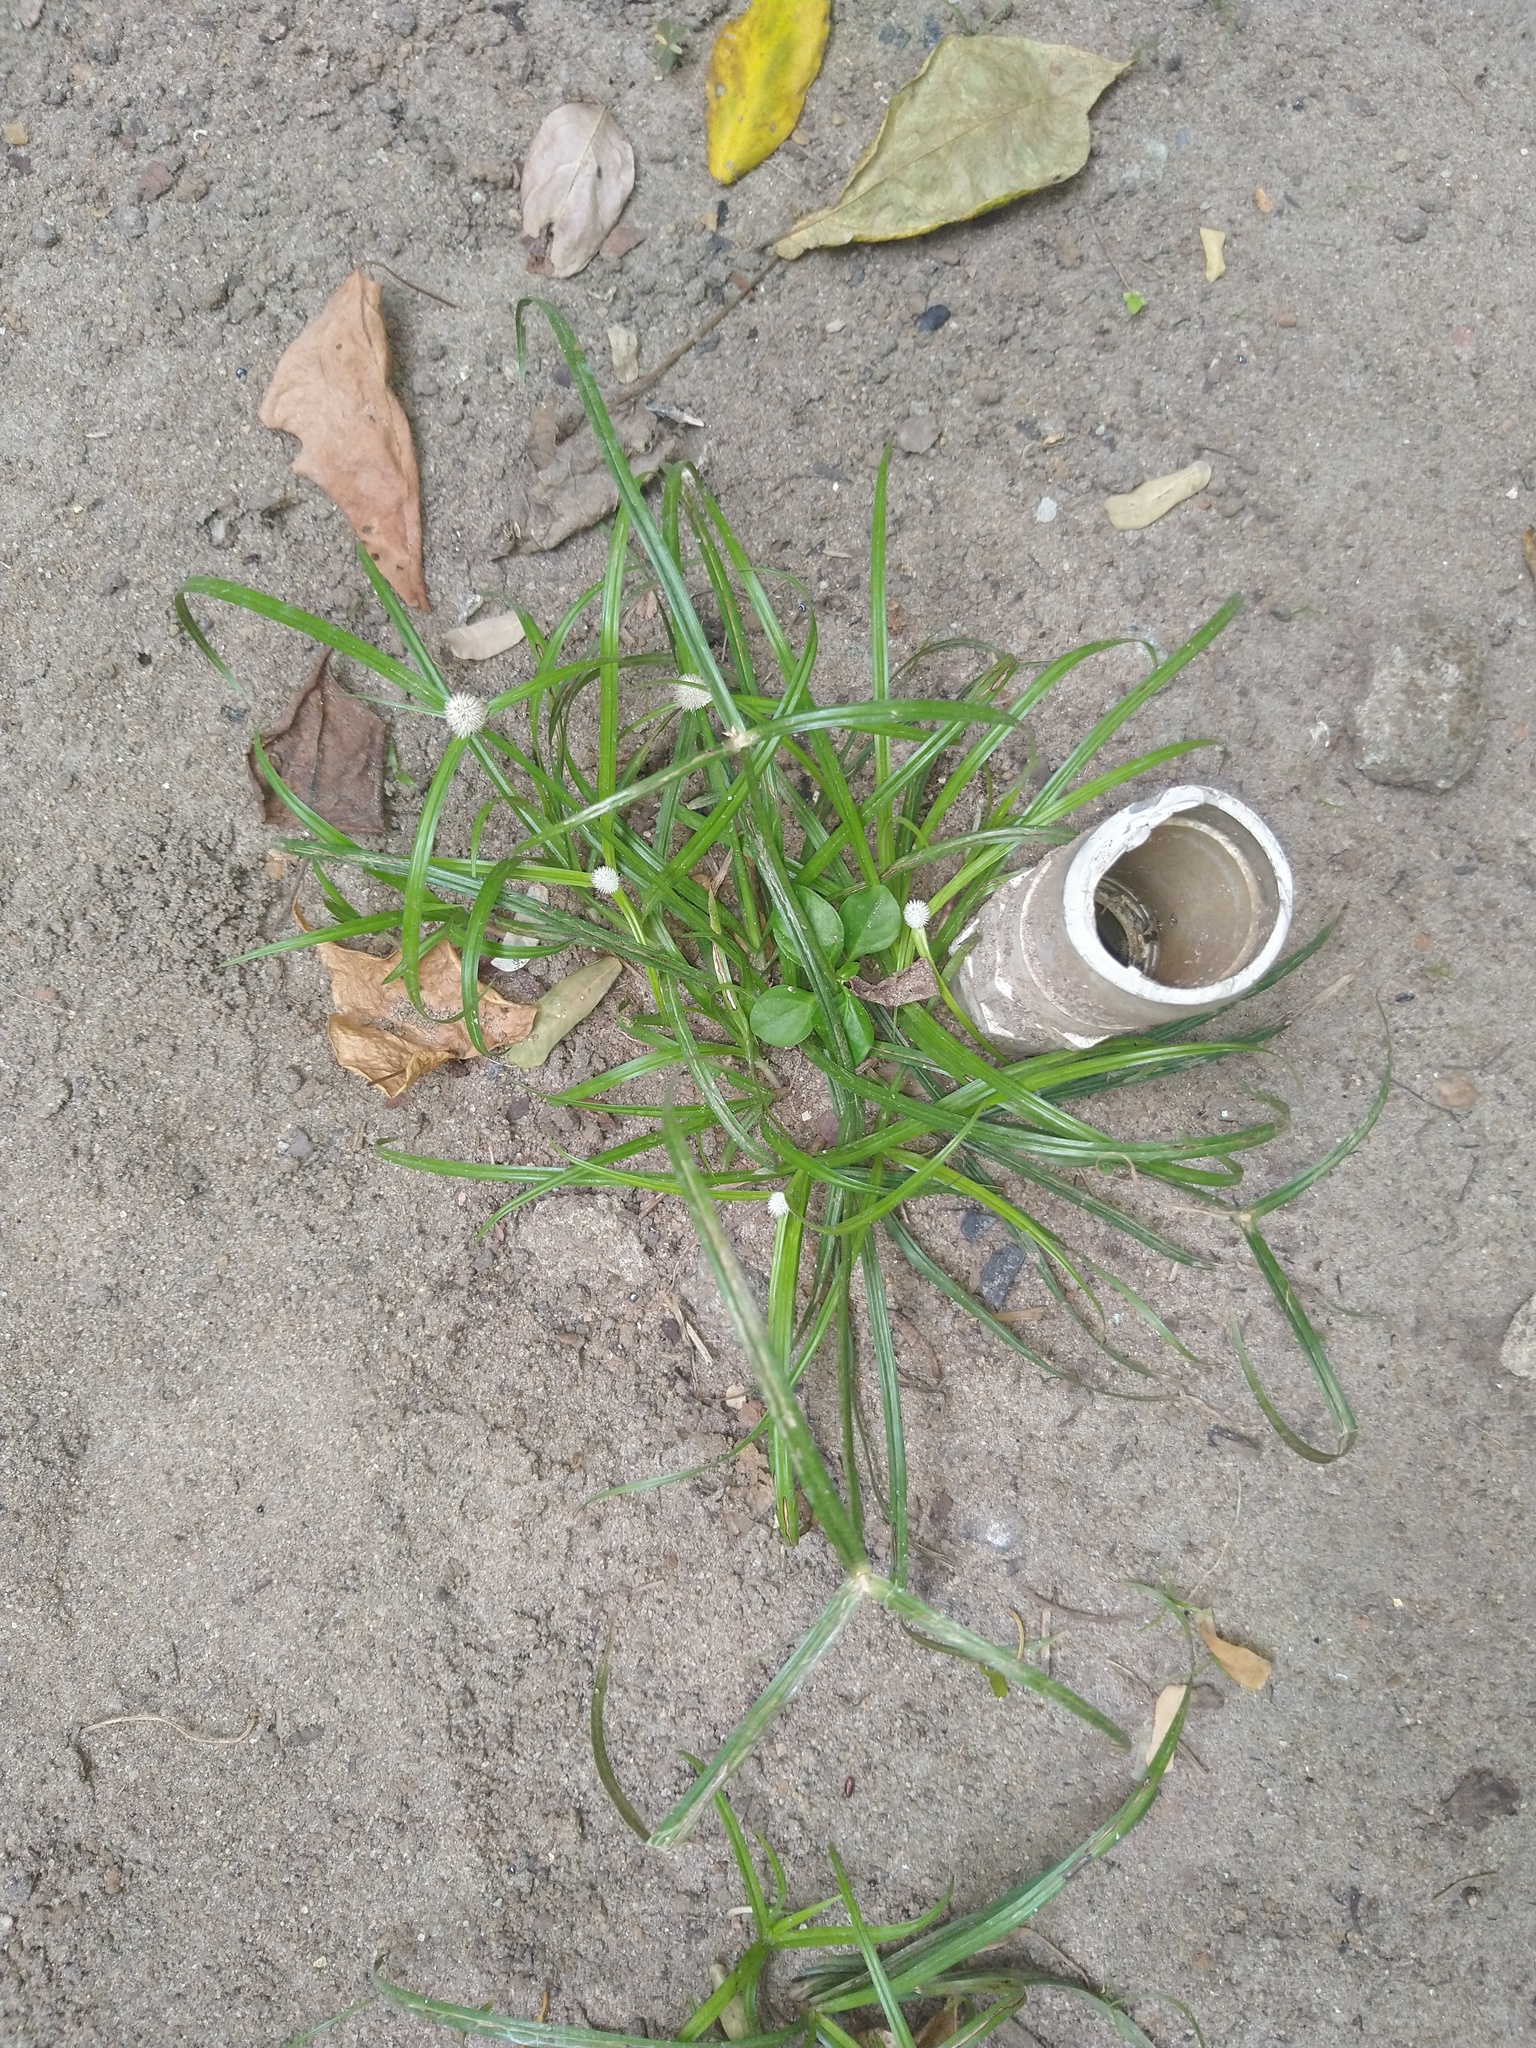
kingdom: Plantae
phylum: Tracheophyta
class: Liliopsida
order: Poales
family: Cyperaceae
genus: Cyperus
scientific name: Cyperus mindorensis
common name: Flatsedge
